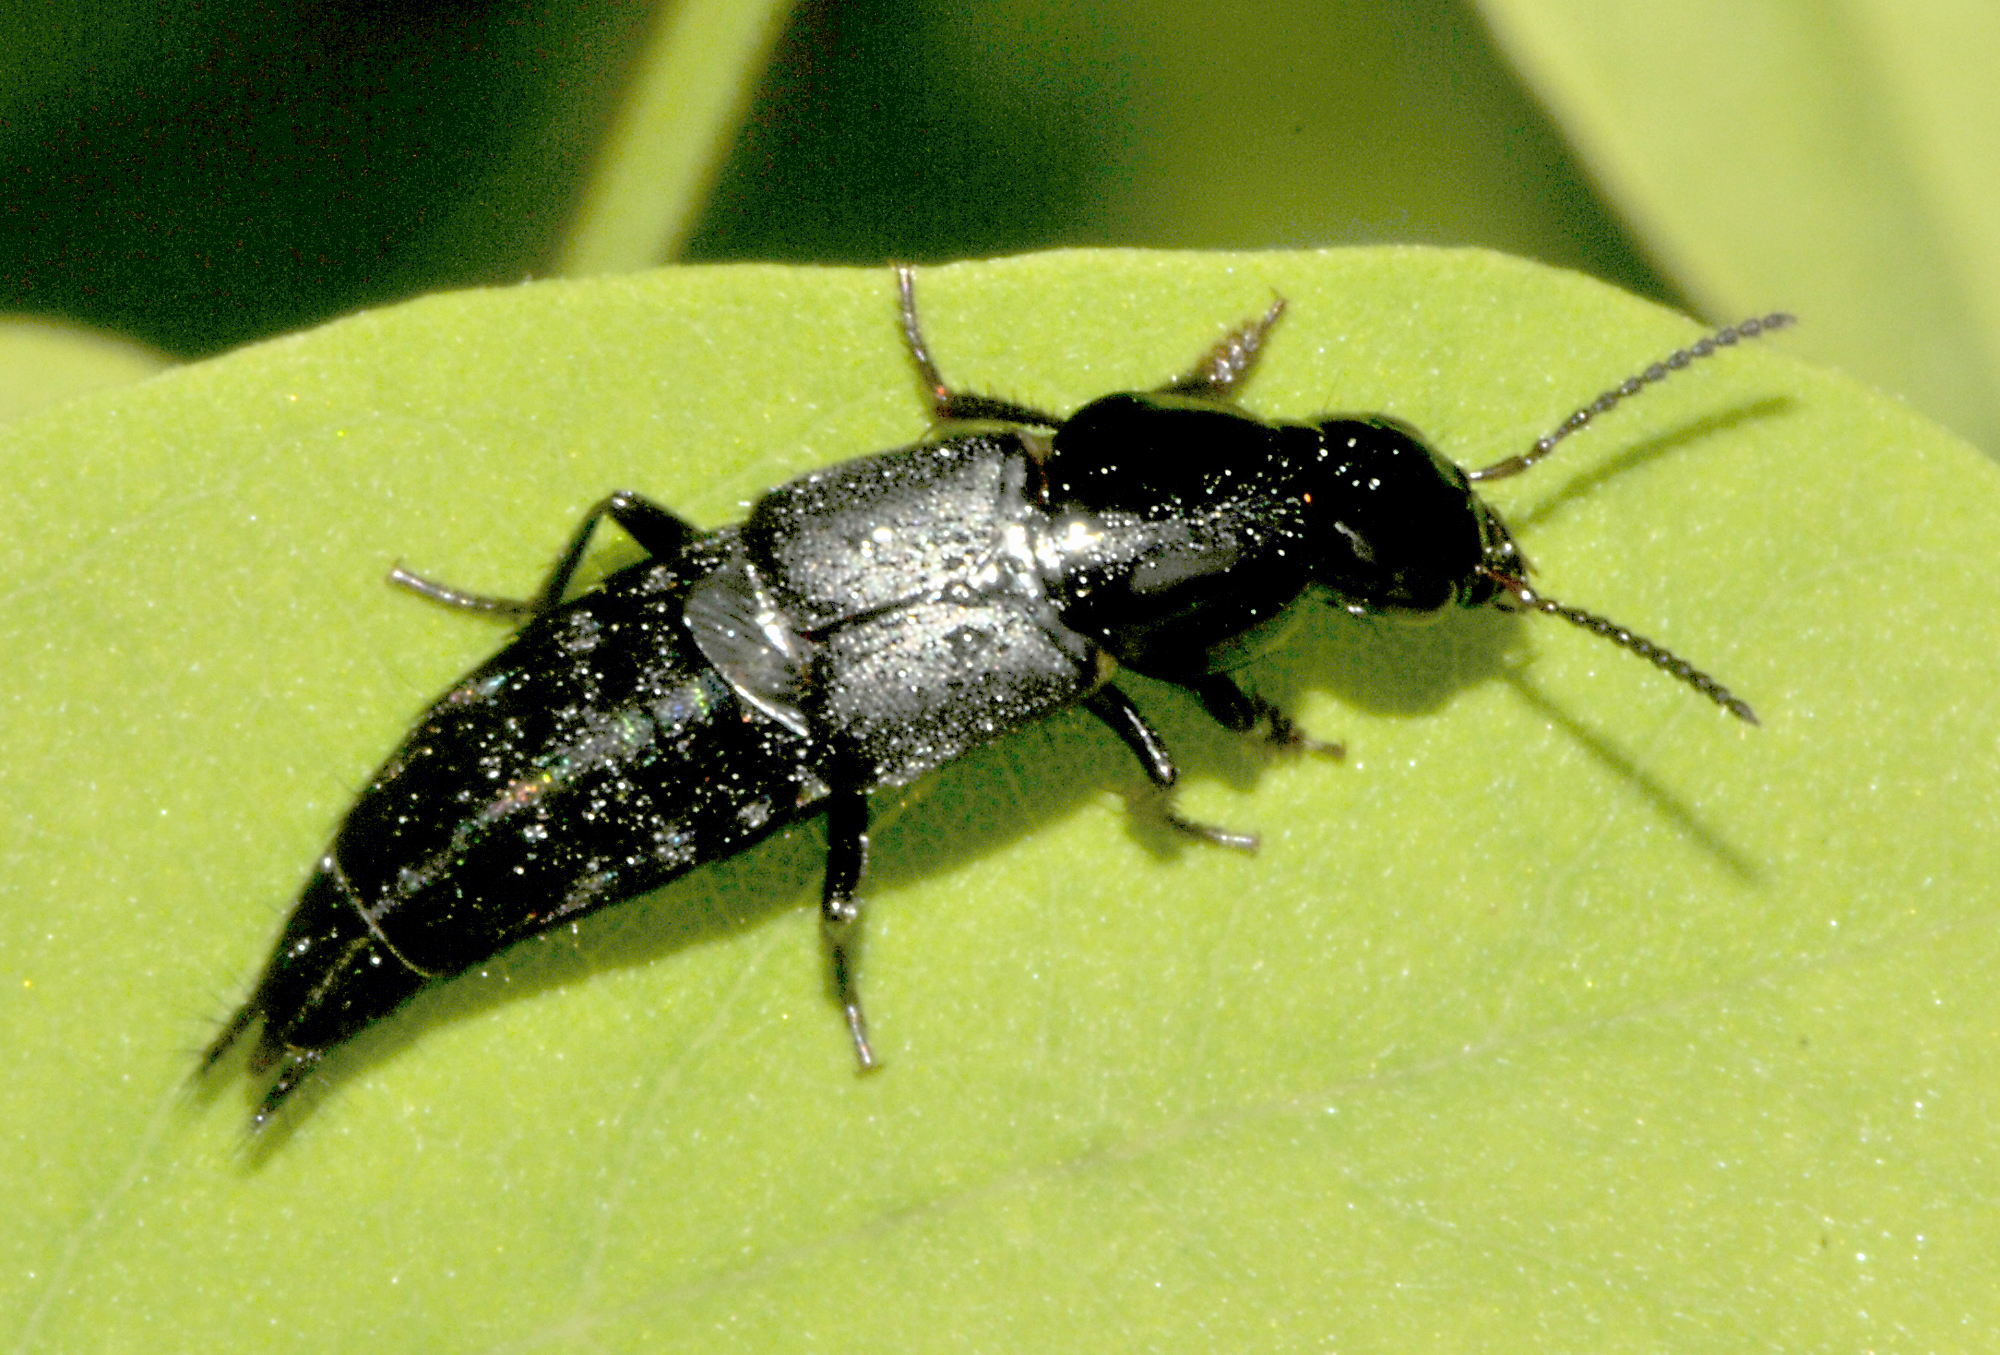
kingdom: Animalia
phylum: Arthropoda
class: Insecta
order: Coleoptera
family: Staphylinidae
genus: Quedius
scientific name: Quedius lateralis
